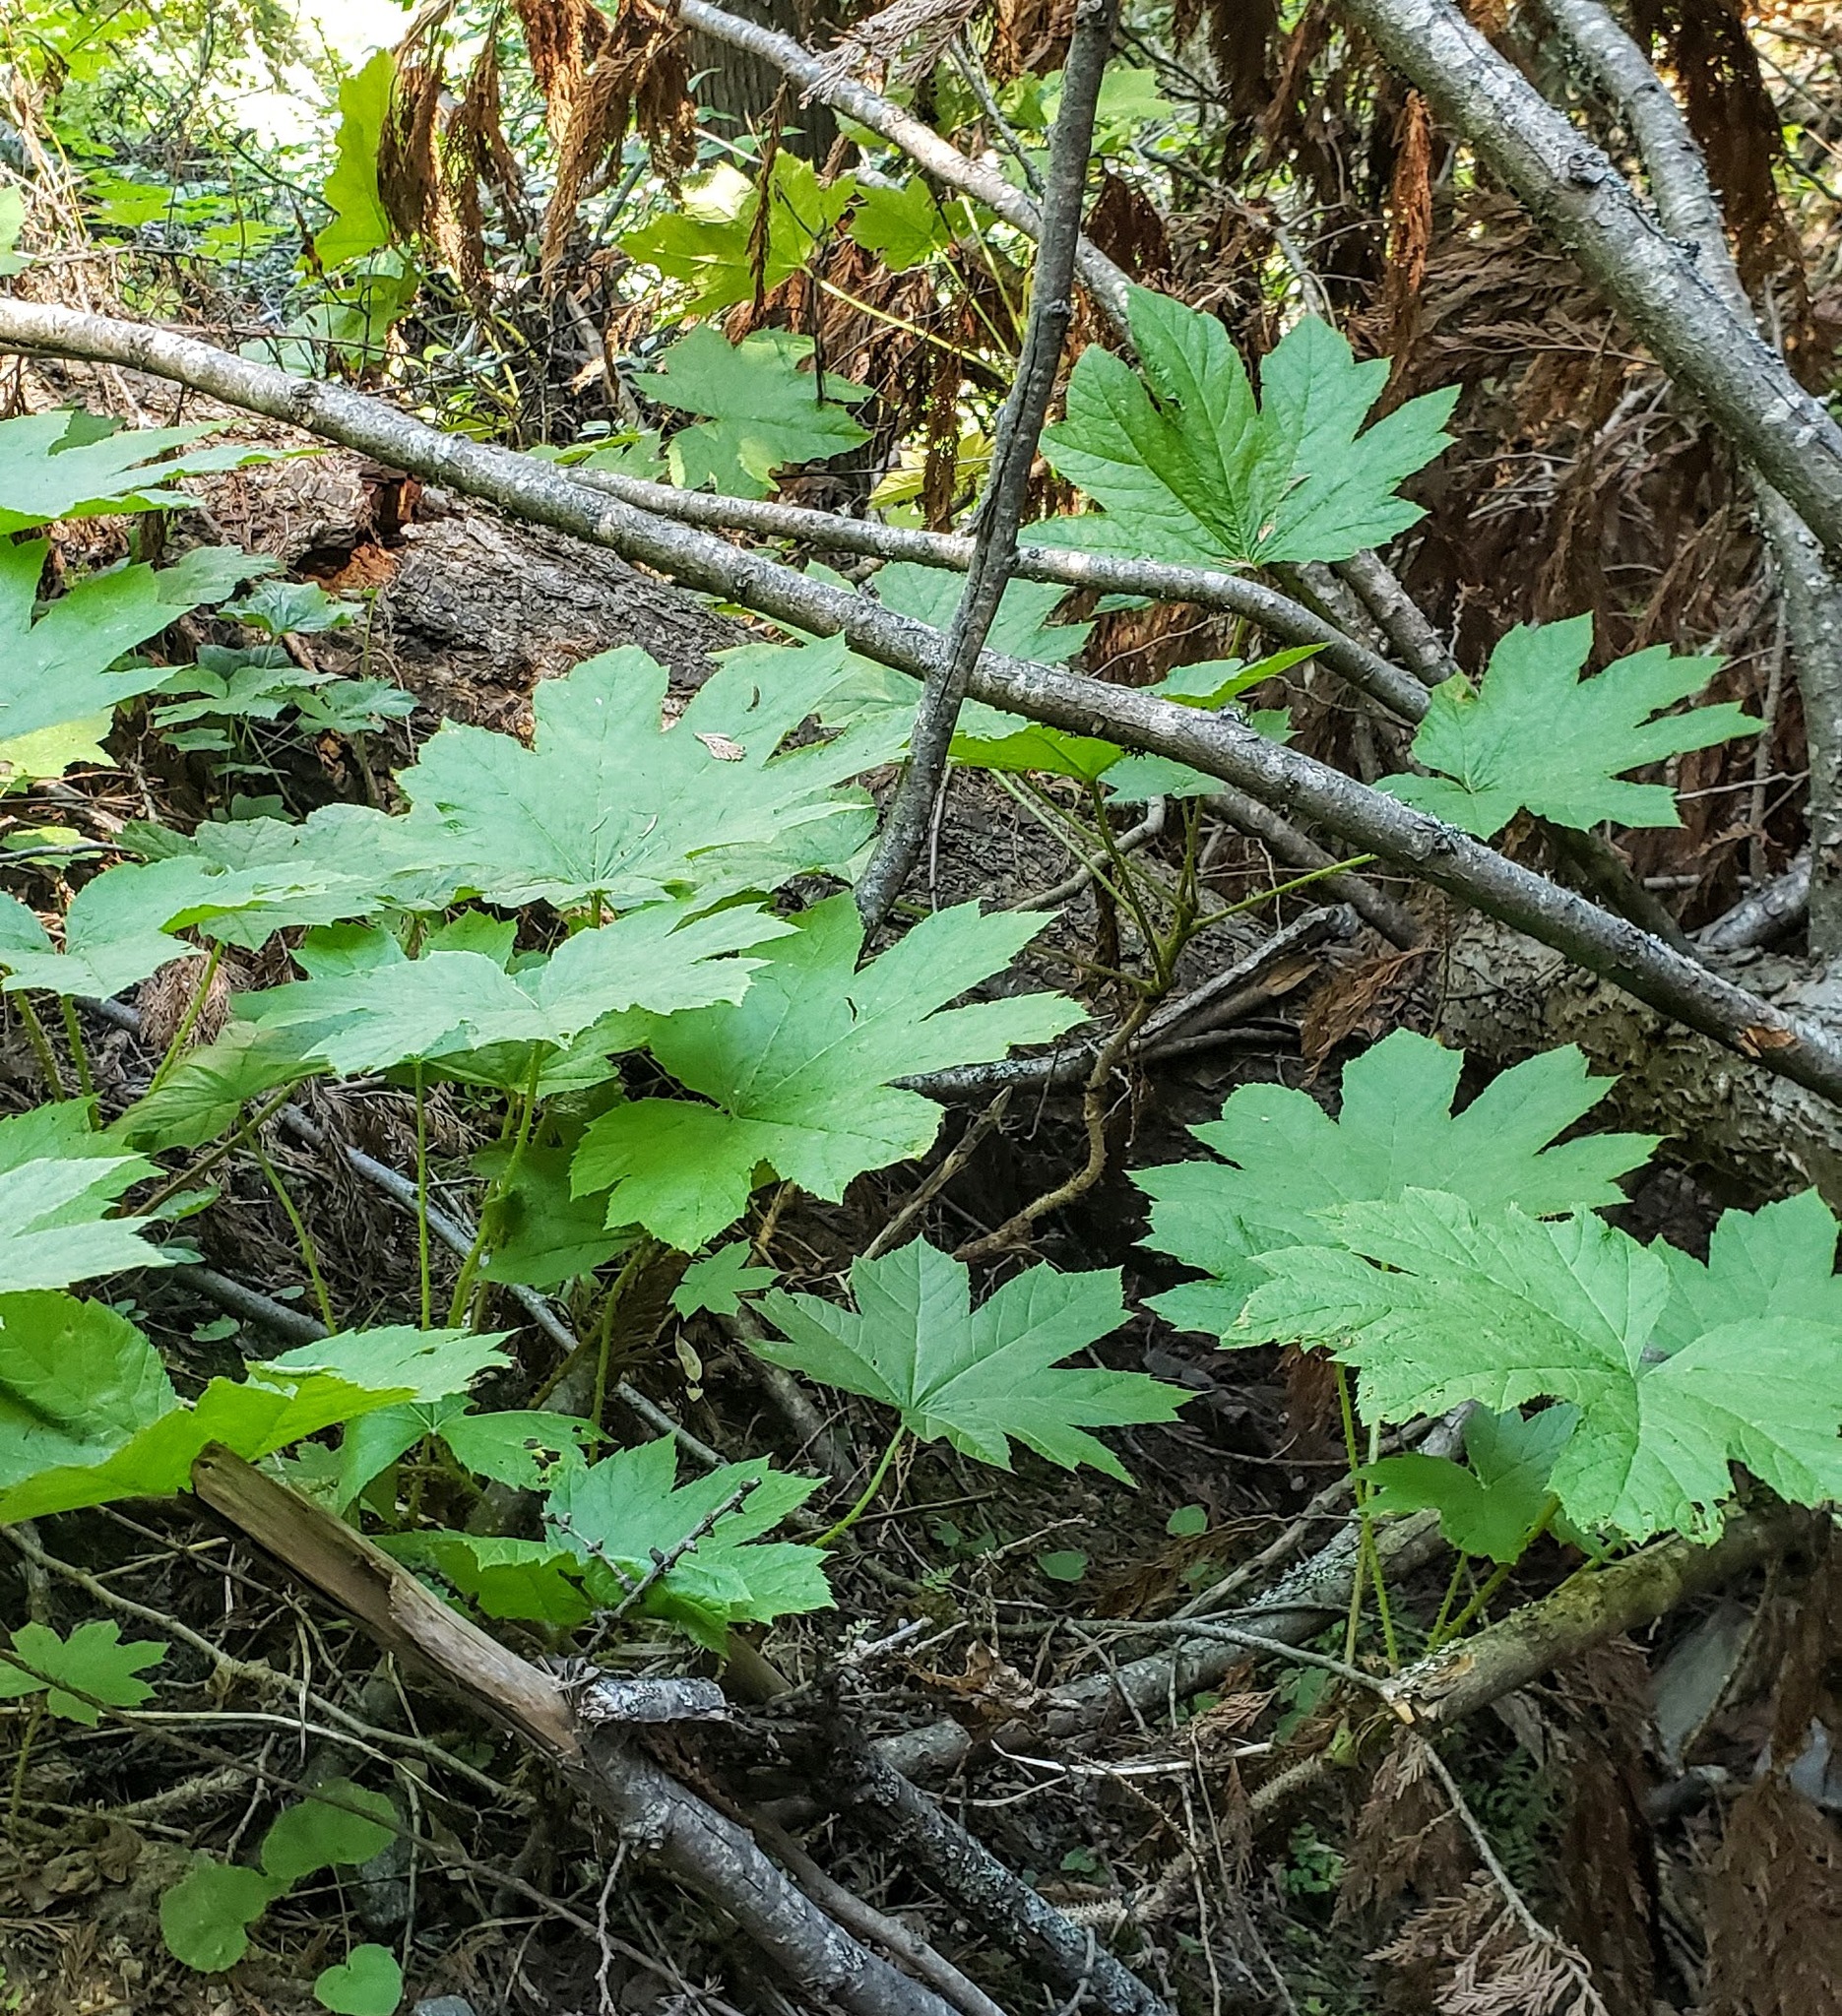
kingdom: Plantae
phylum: Tracheophyta
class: Magnoliopsida
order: Apiales
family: Araliaceae
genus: Oplopanax
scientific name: Oplopanax horridus
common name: Devil's walking-stick
